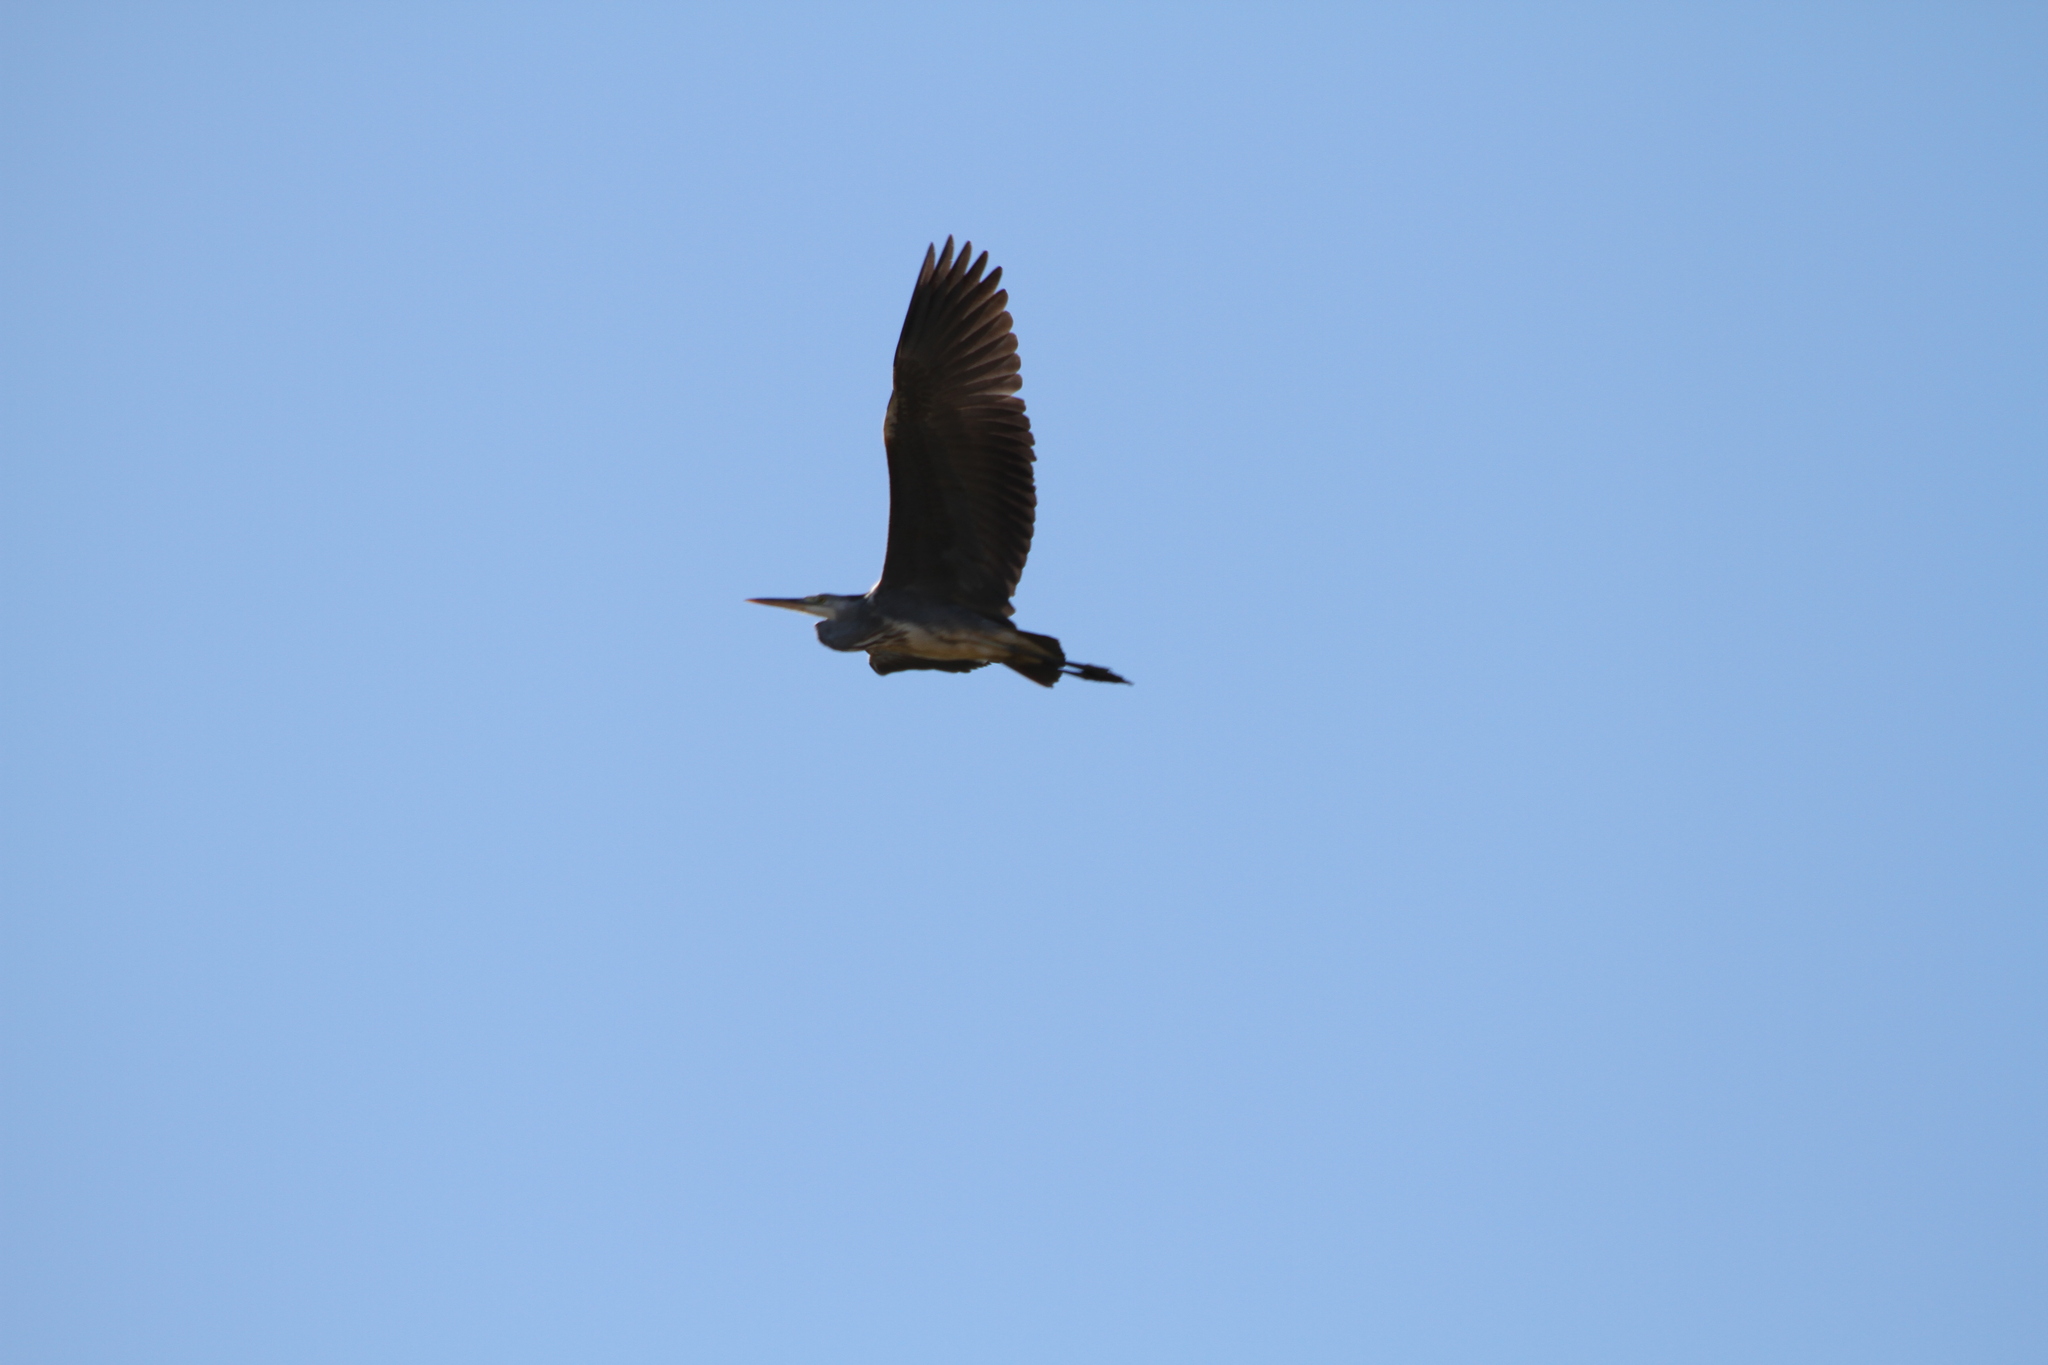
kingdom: Animalia
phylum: Chordata
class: Aves
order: Pelecaniformes
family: Ardeidae
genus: Ardea
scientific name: Ardea cinerea
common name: Grey heron
